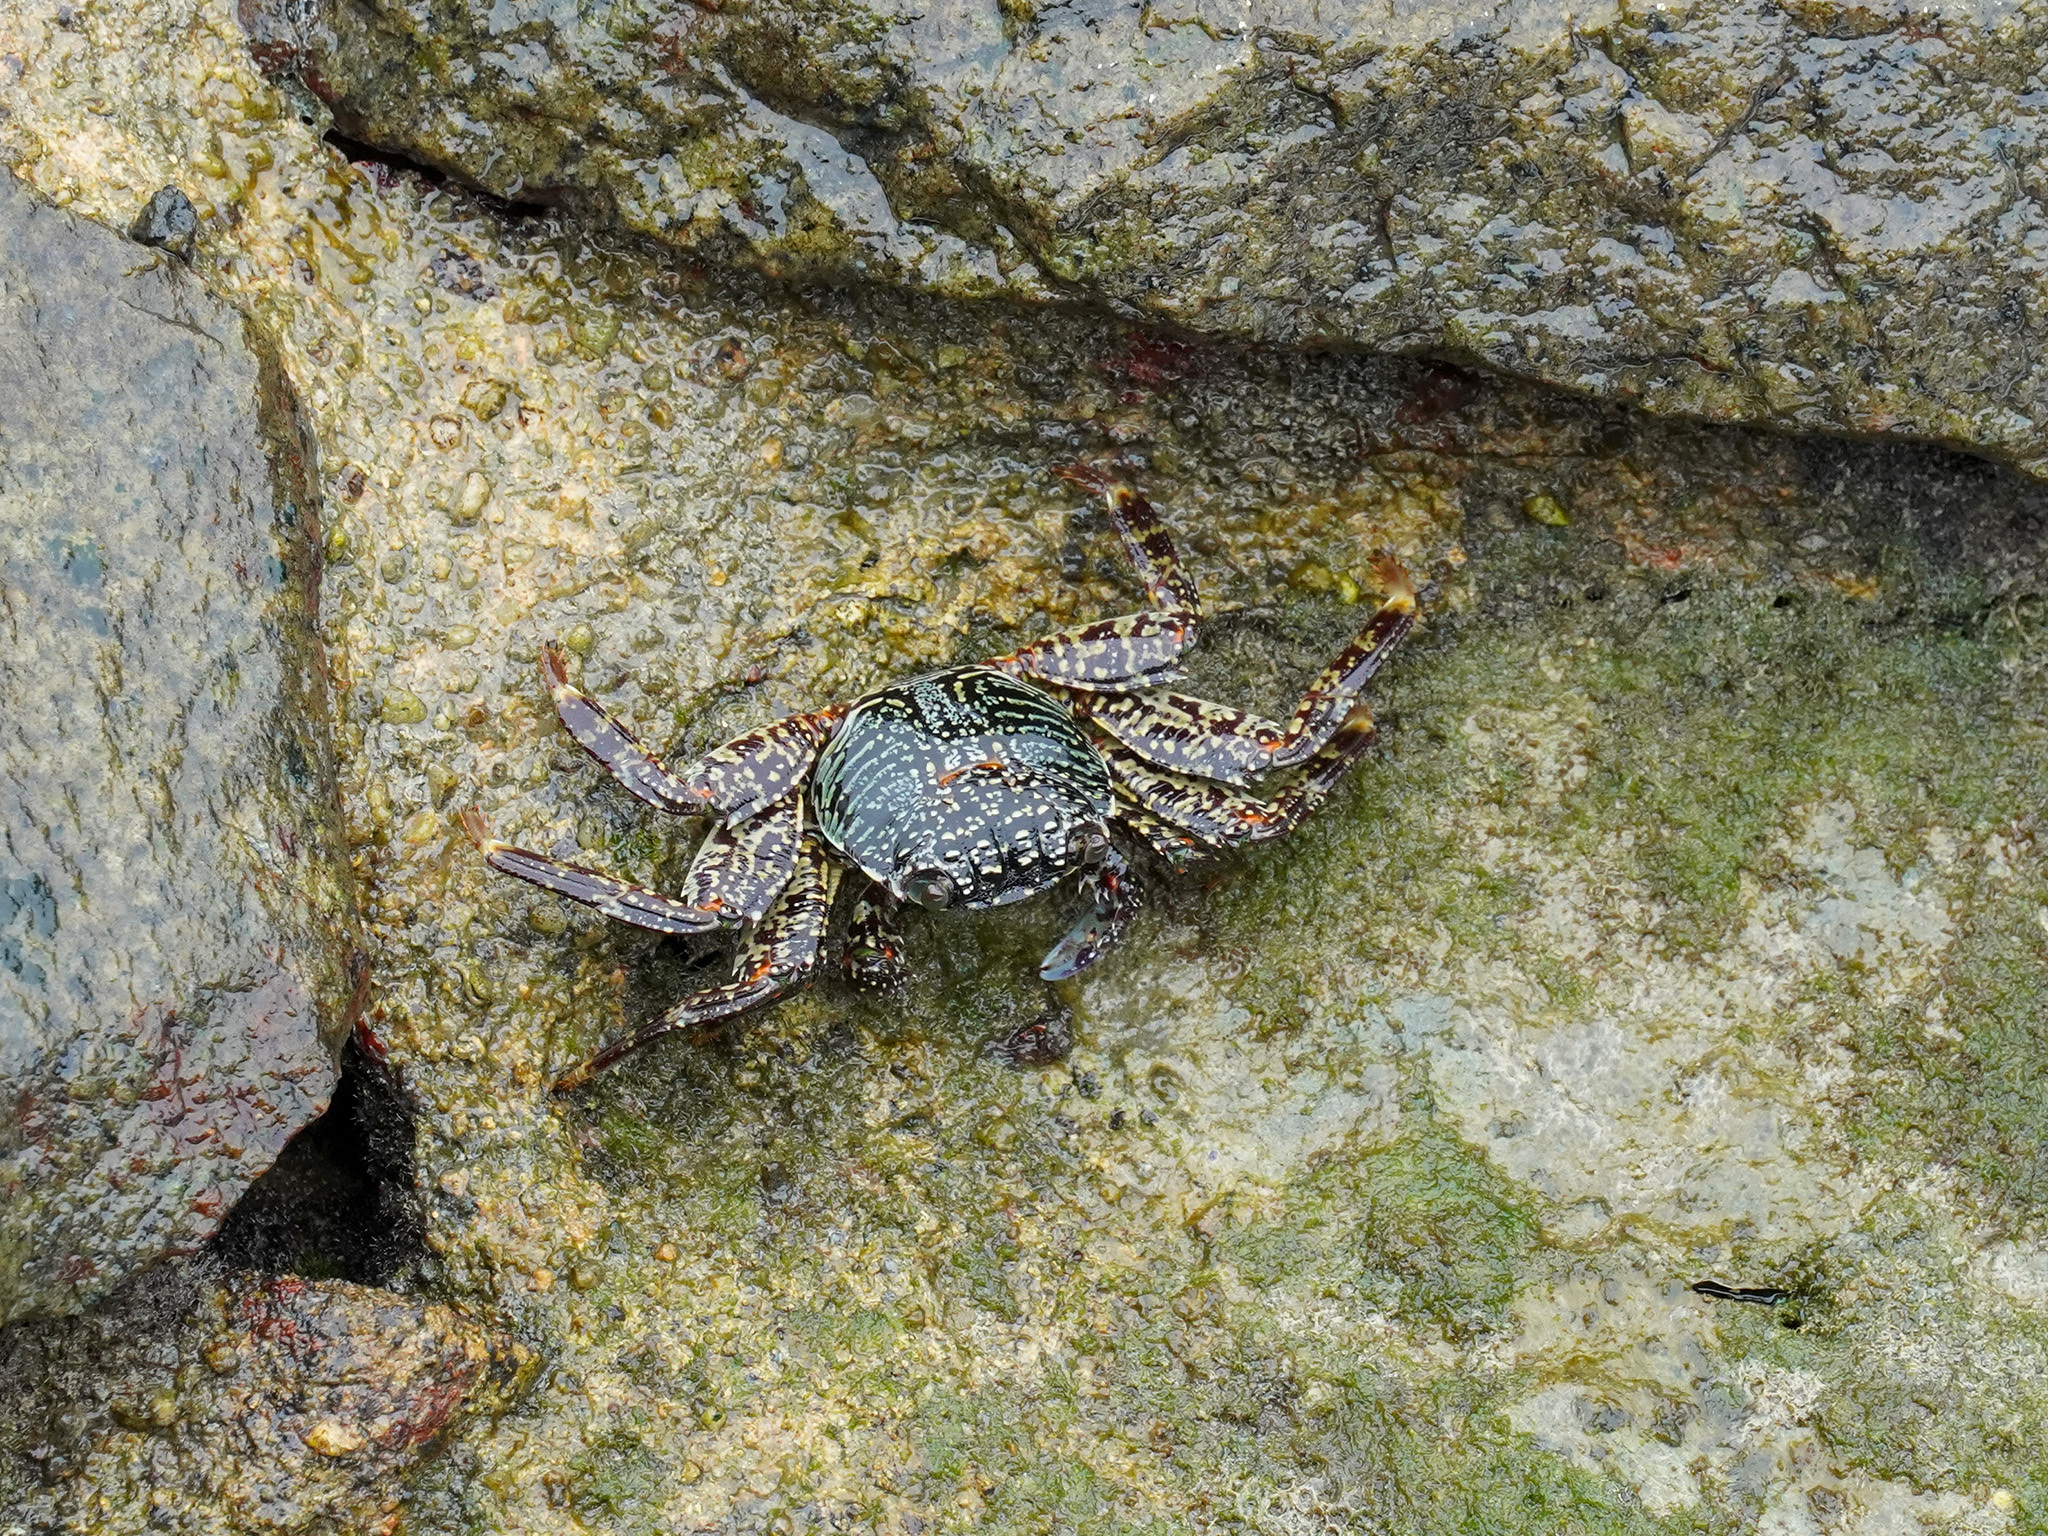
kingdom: Animalia
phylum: Arthropoda
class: Malacostraca
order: Decapoda
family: Grapsidae
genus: Grapsus
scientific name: Grapsus albolineatus
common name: Mottled lightfoot crab
